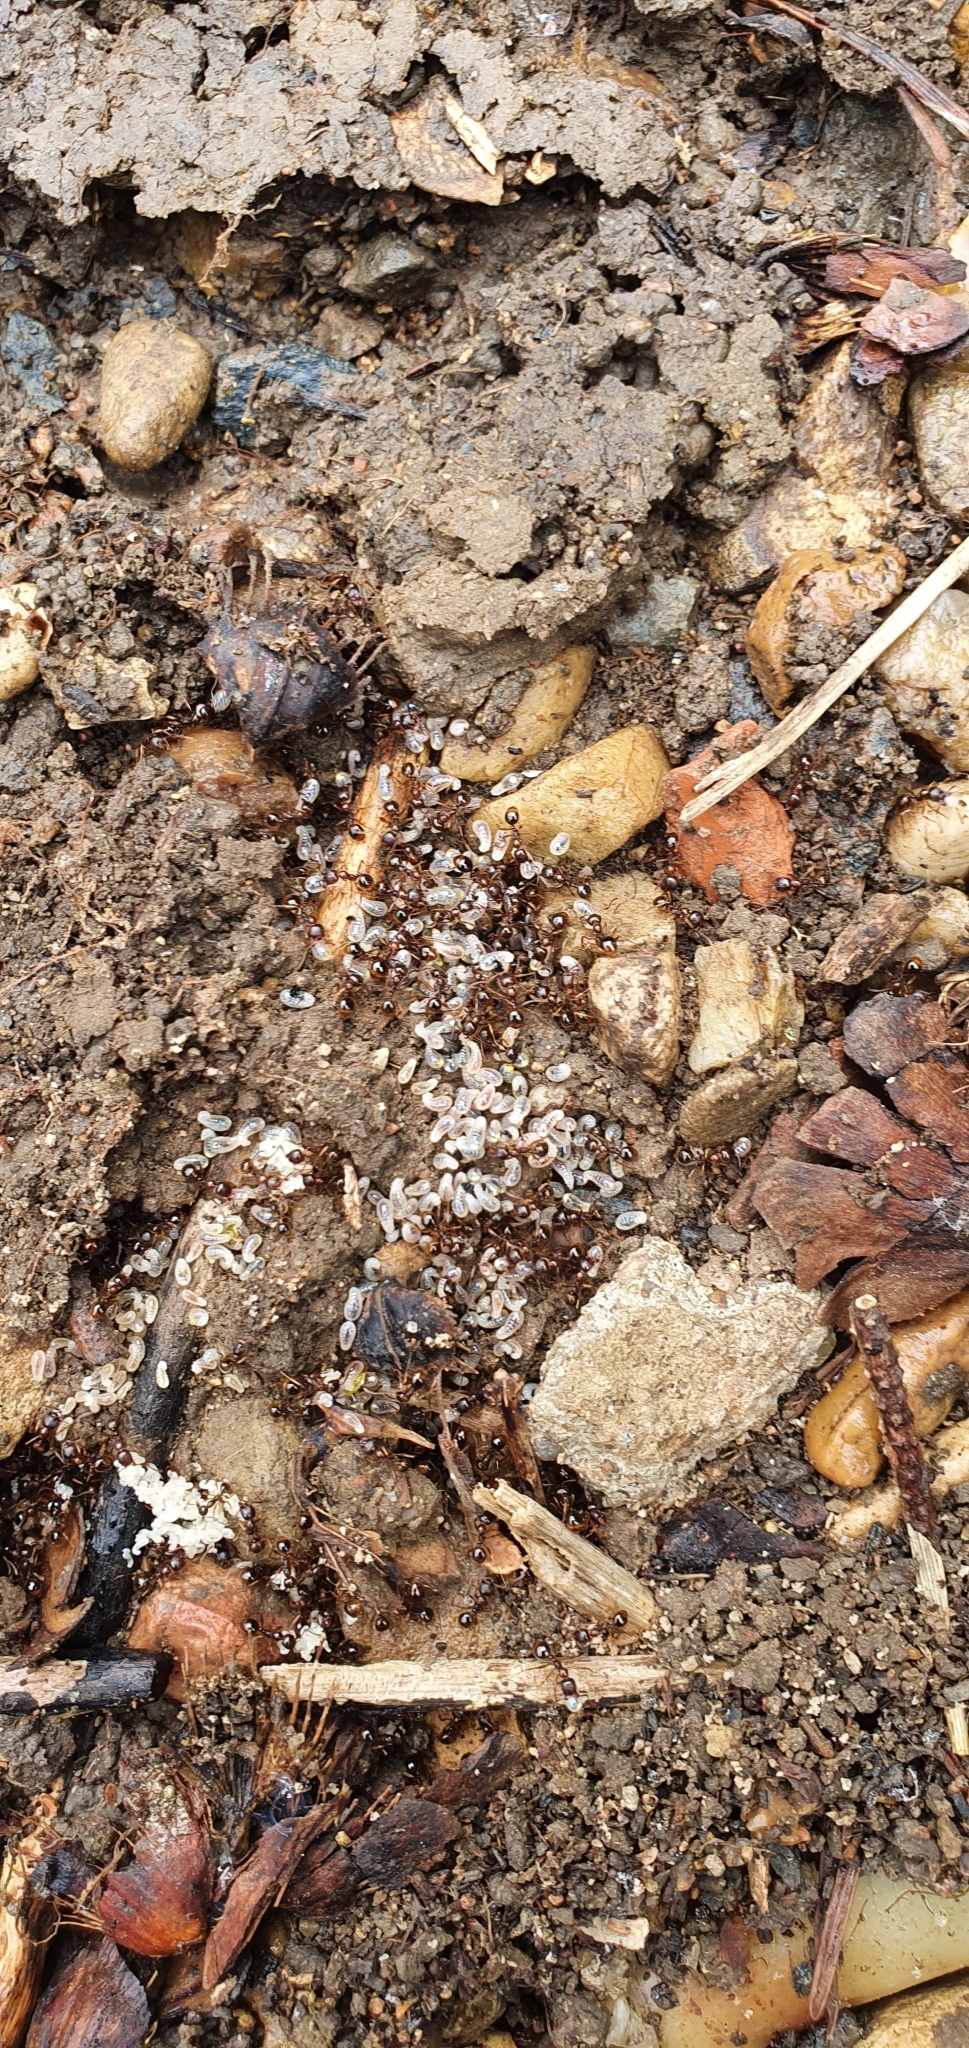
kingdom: Animalia
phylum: Arthropoda
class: Insecta
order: Hymenoptera
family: Formicidae
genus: Aphaenogaster
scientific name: Aphaenogaster subterranea
